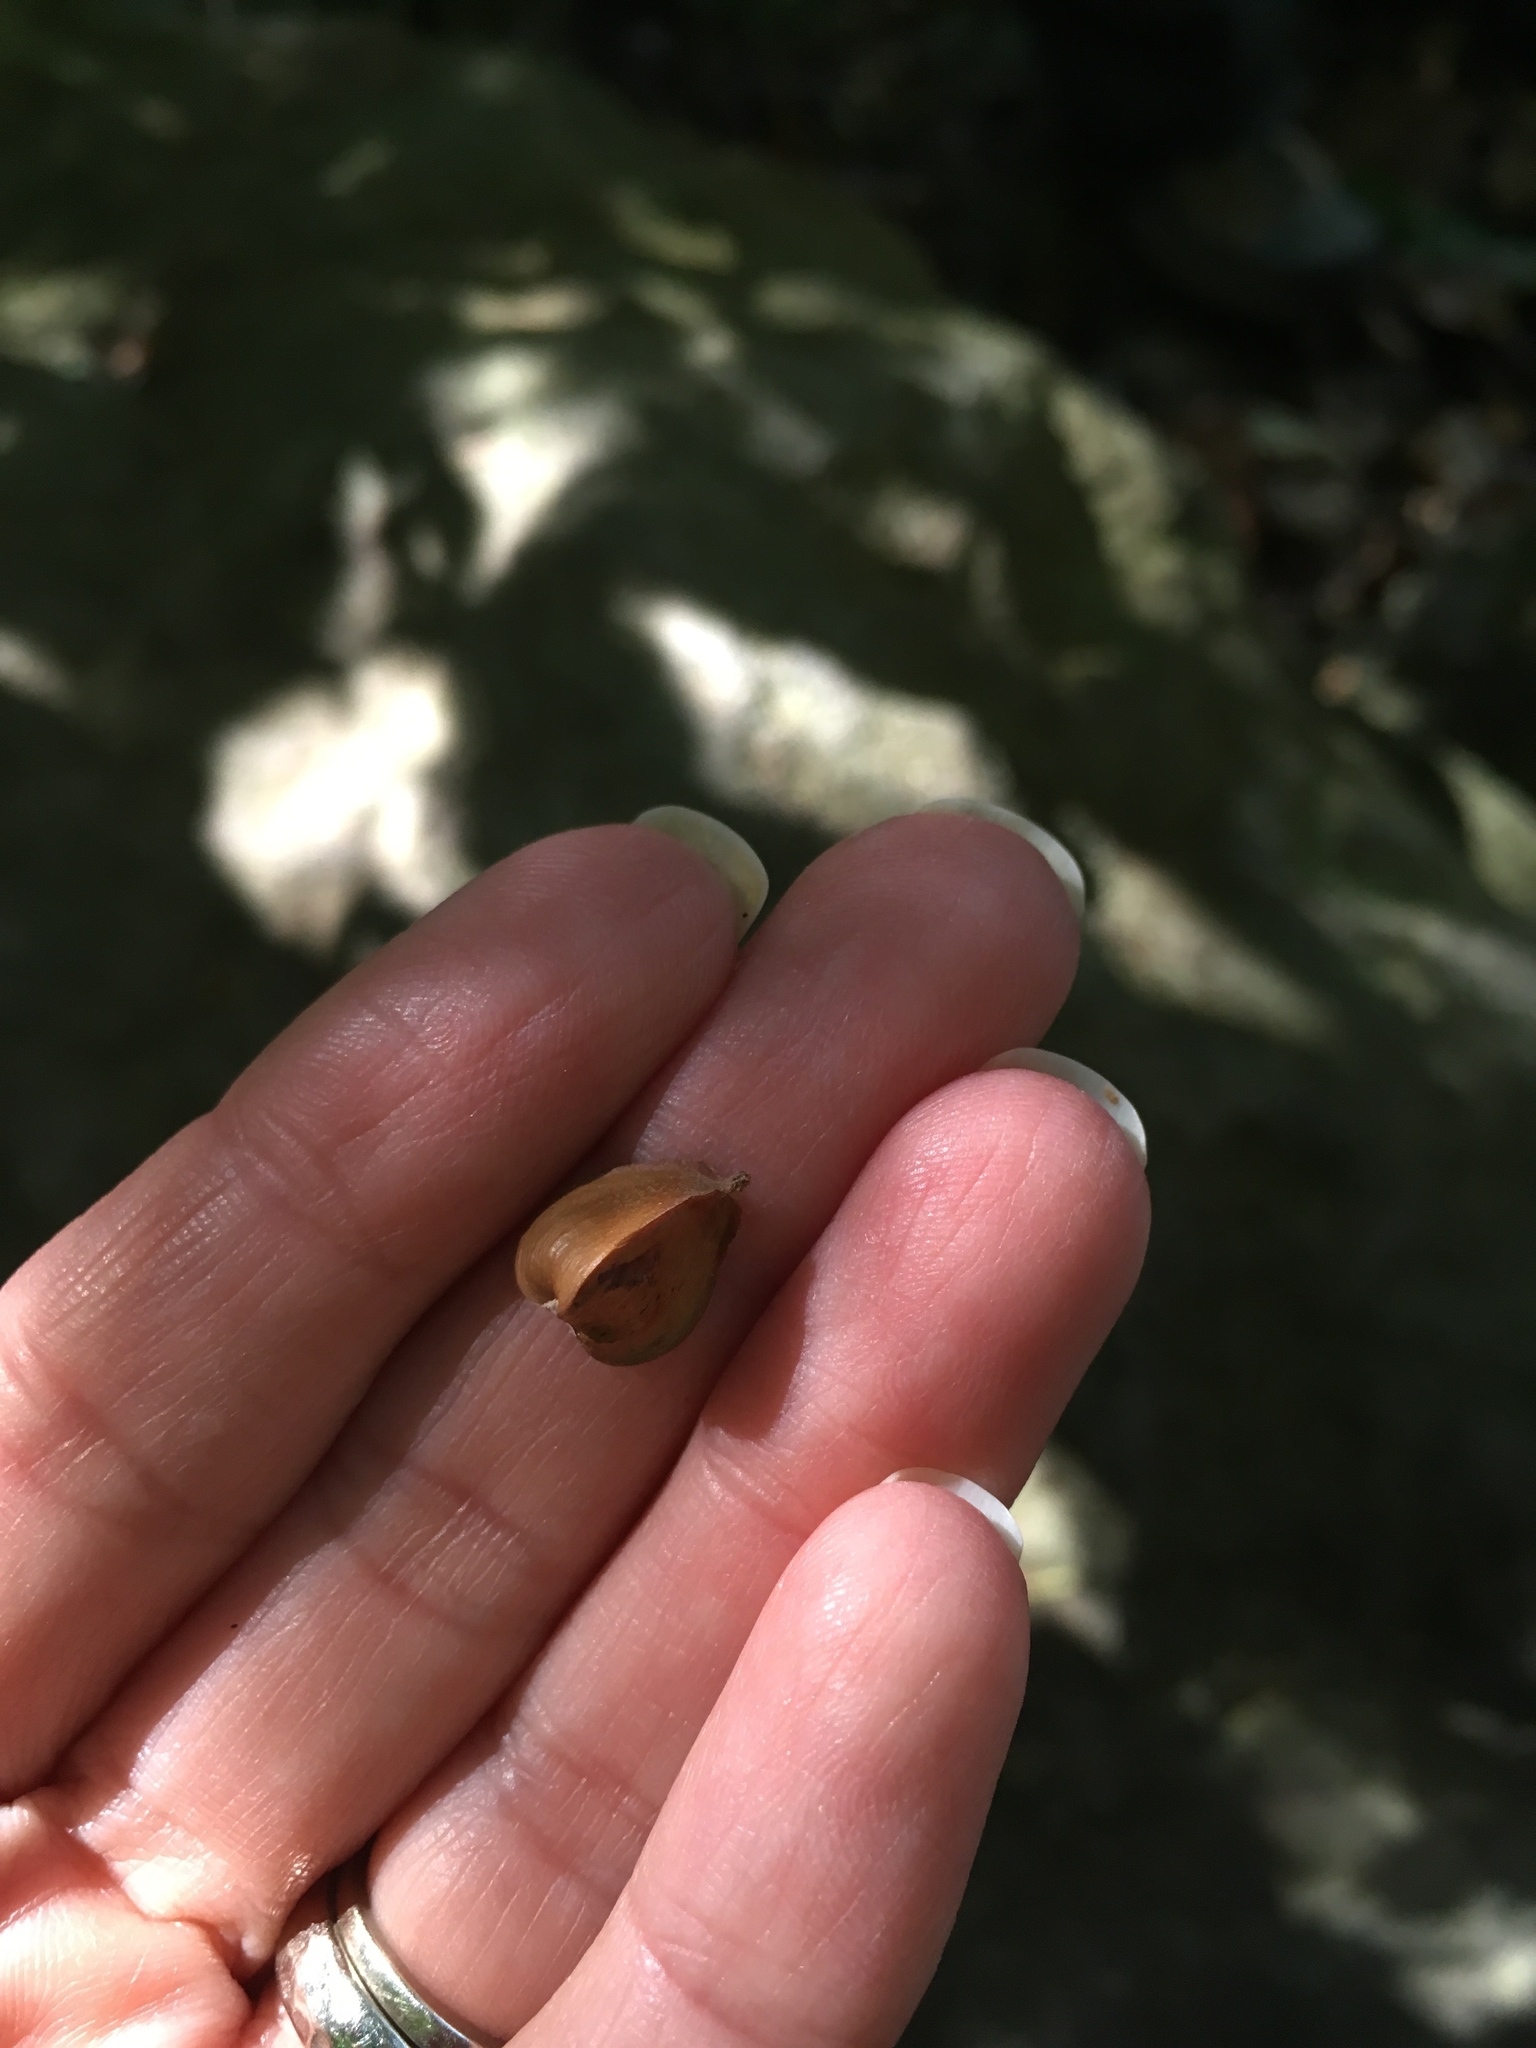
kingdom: Plantae
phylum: Tracheophyta
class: Magnoliopsida
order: Fagales
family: Fagaceae
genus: Fagus
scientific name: Fagus grandifolia
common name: American beech
